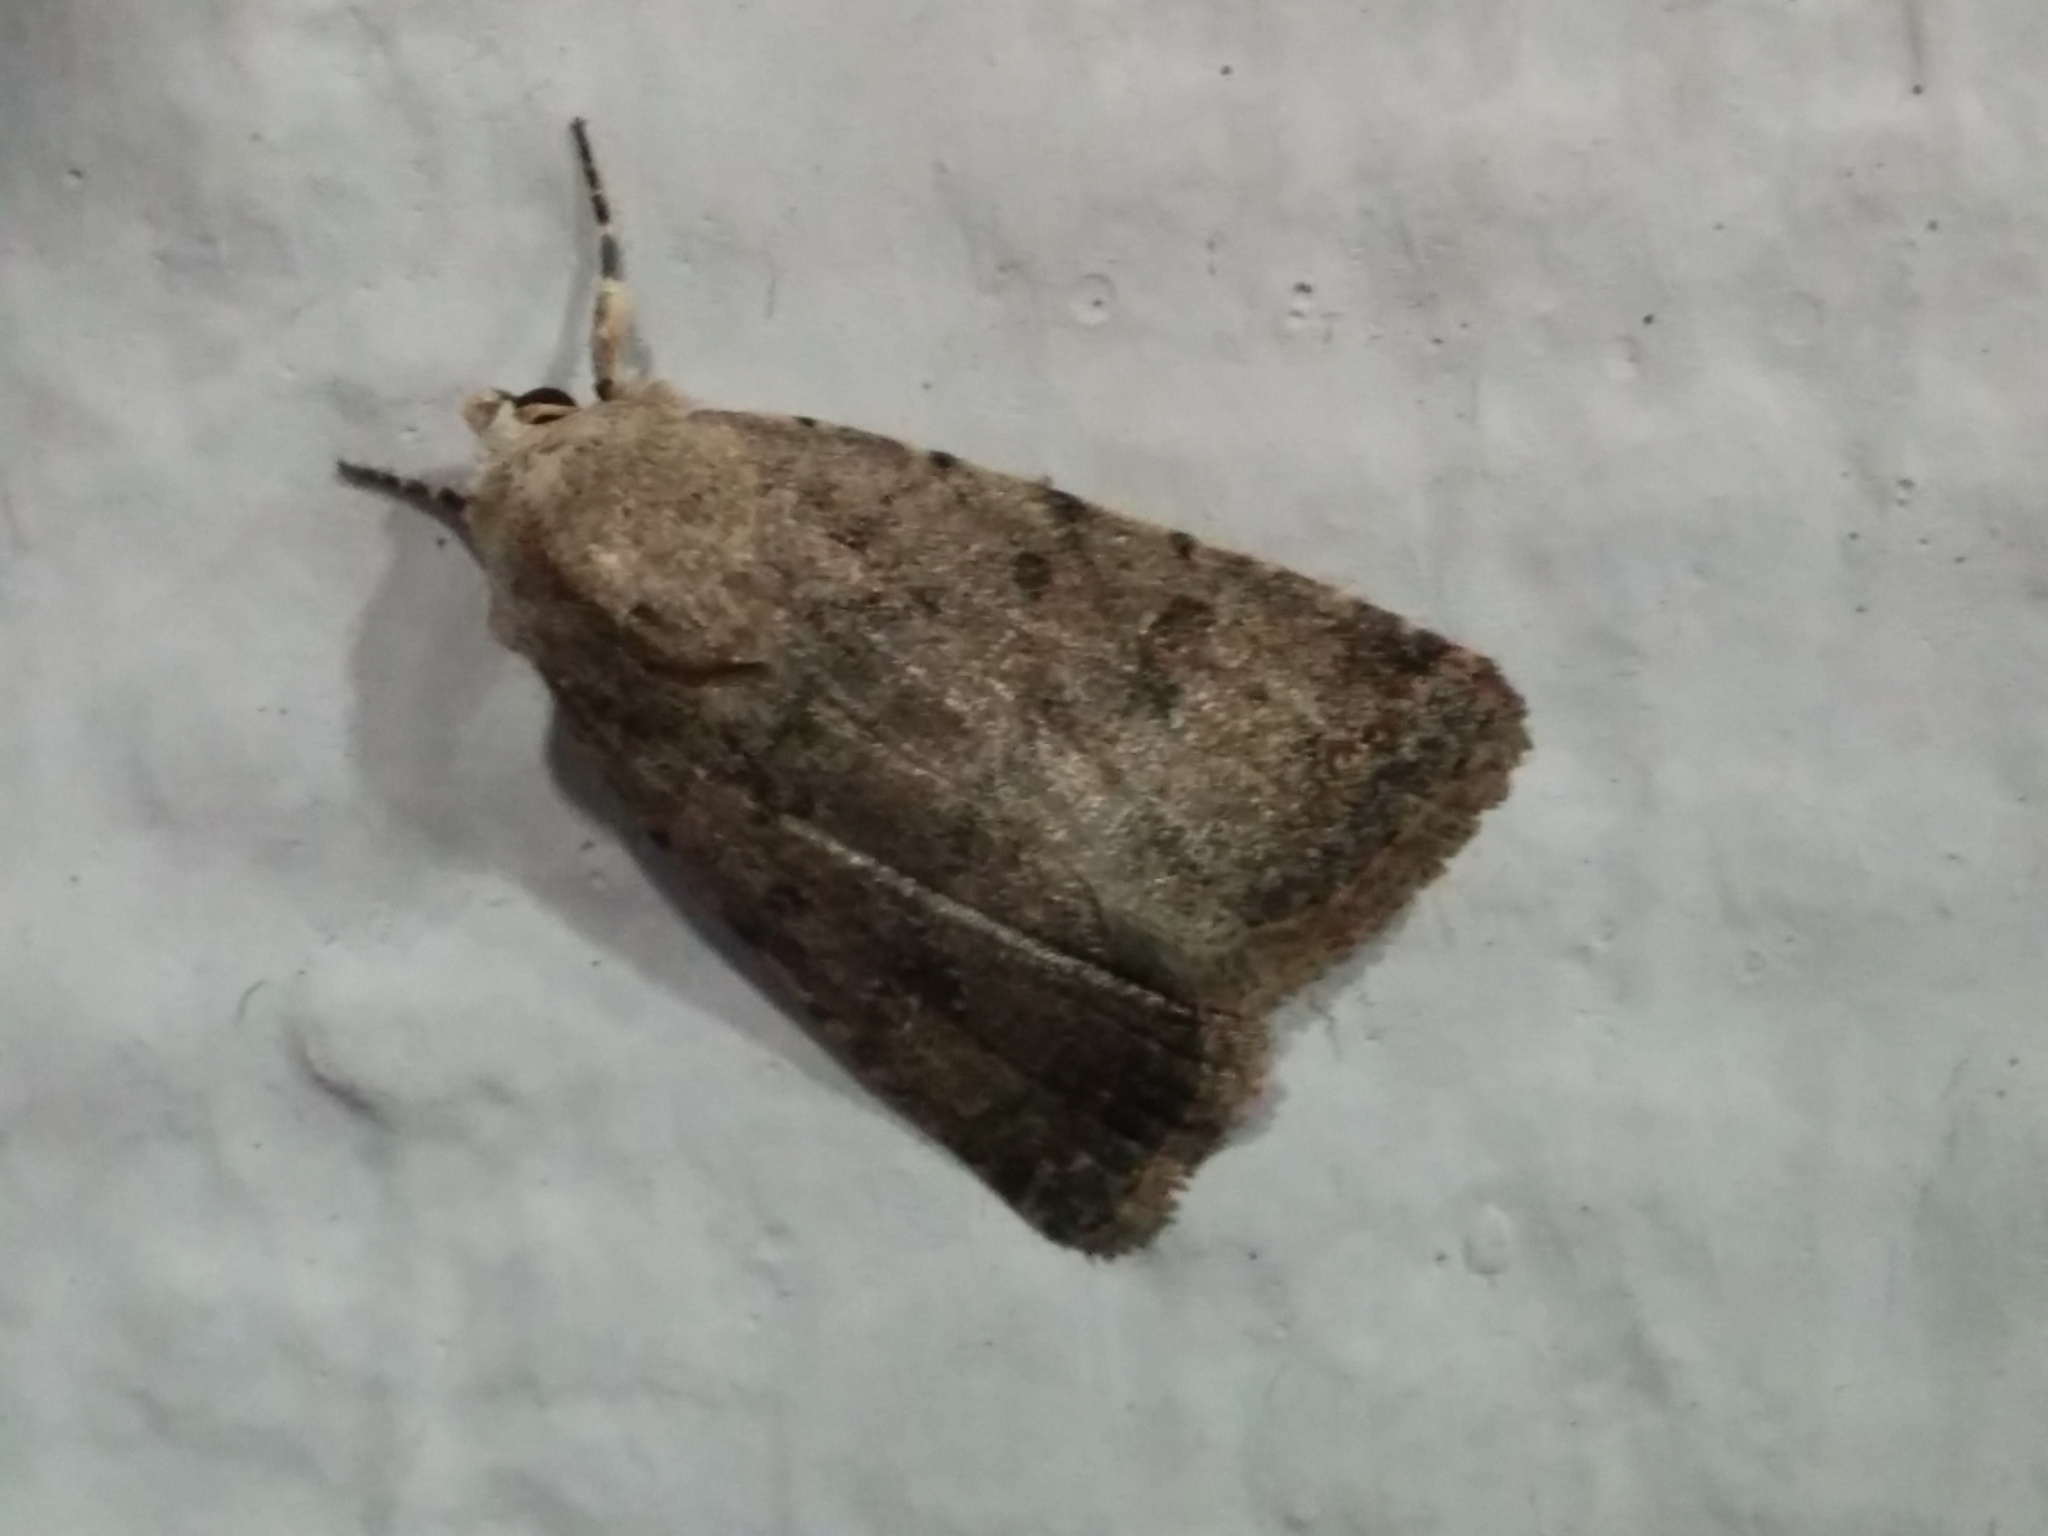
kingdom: Animalia
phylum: Arthropoda
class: Insecta
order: Lepidoptera
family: Noctuidae
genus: Caradrina
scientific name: Caradrina clavipalpis
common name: Pale mottled willow
